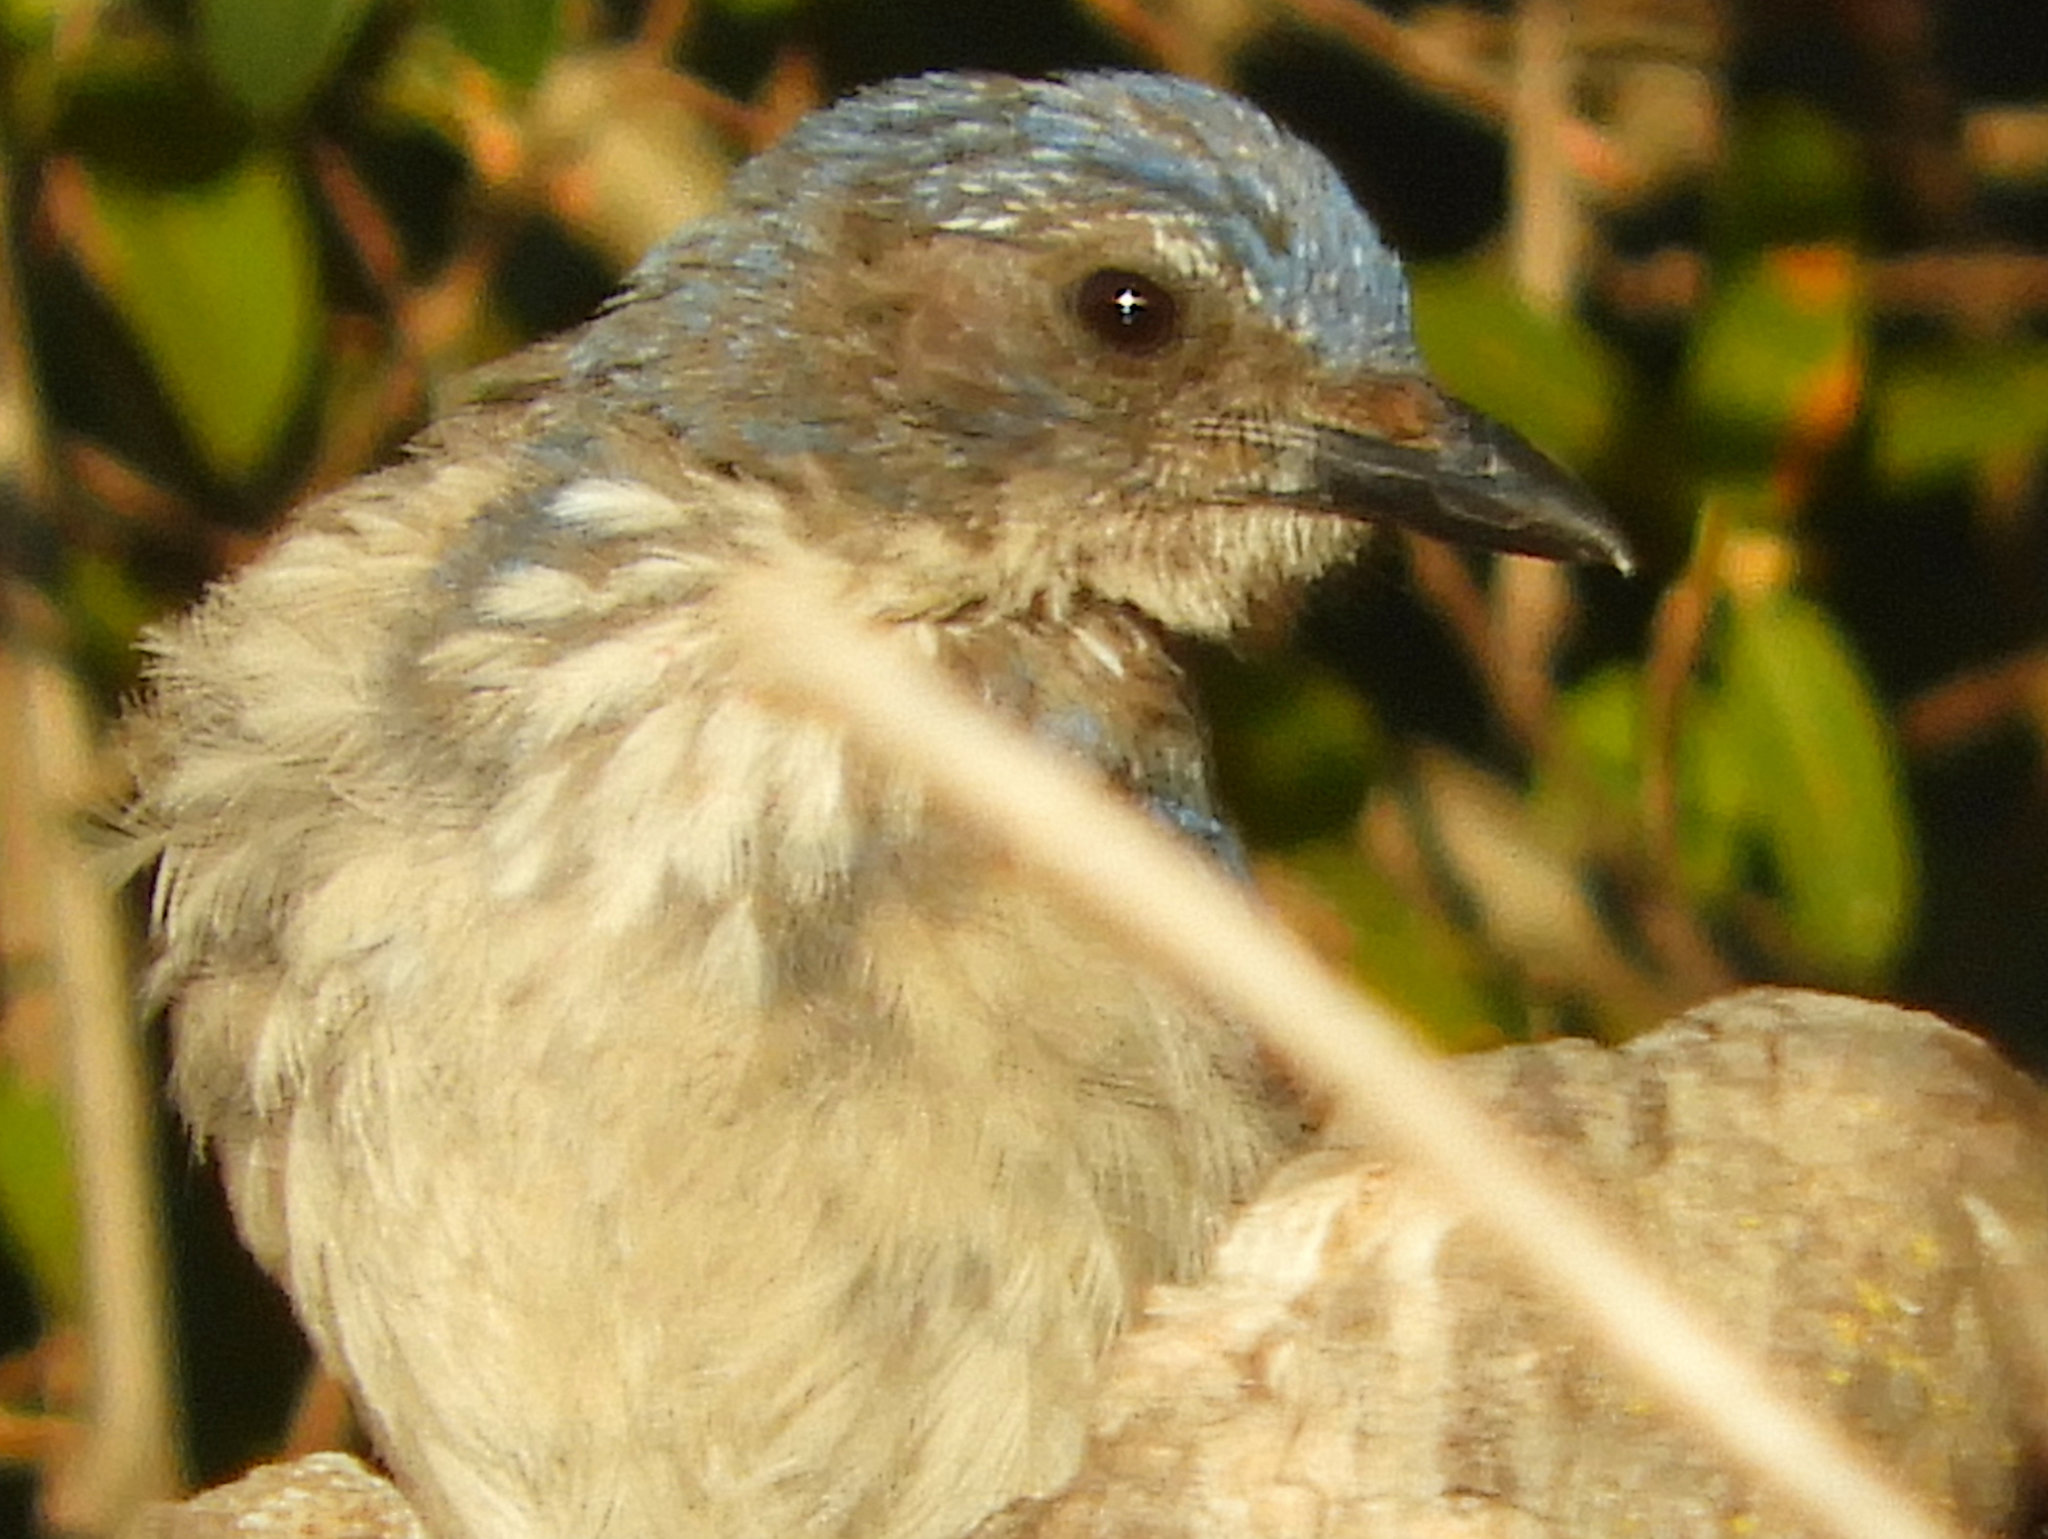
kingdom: Animalia
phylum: Chordata
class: Aves
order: Passeriformes
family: Corvidae
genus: Aphelocoma
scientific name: Aphelocoma californica
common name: California scrub-jay
